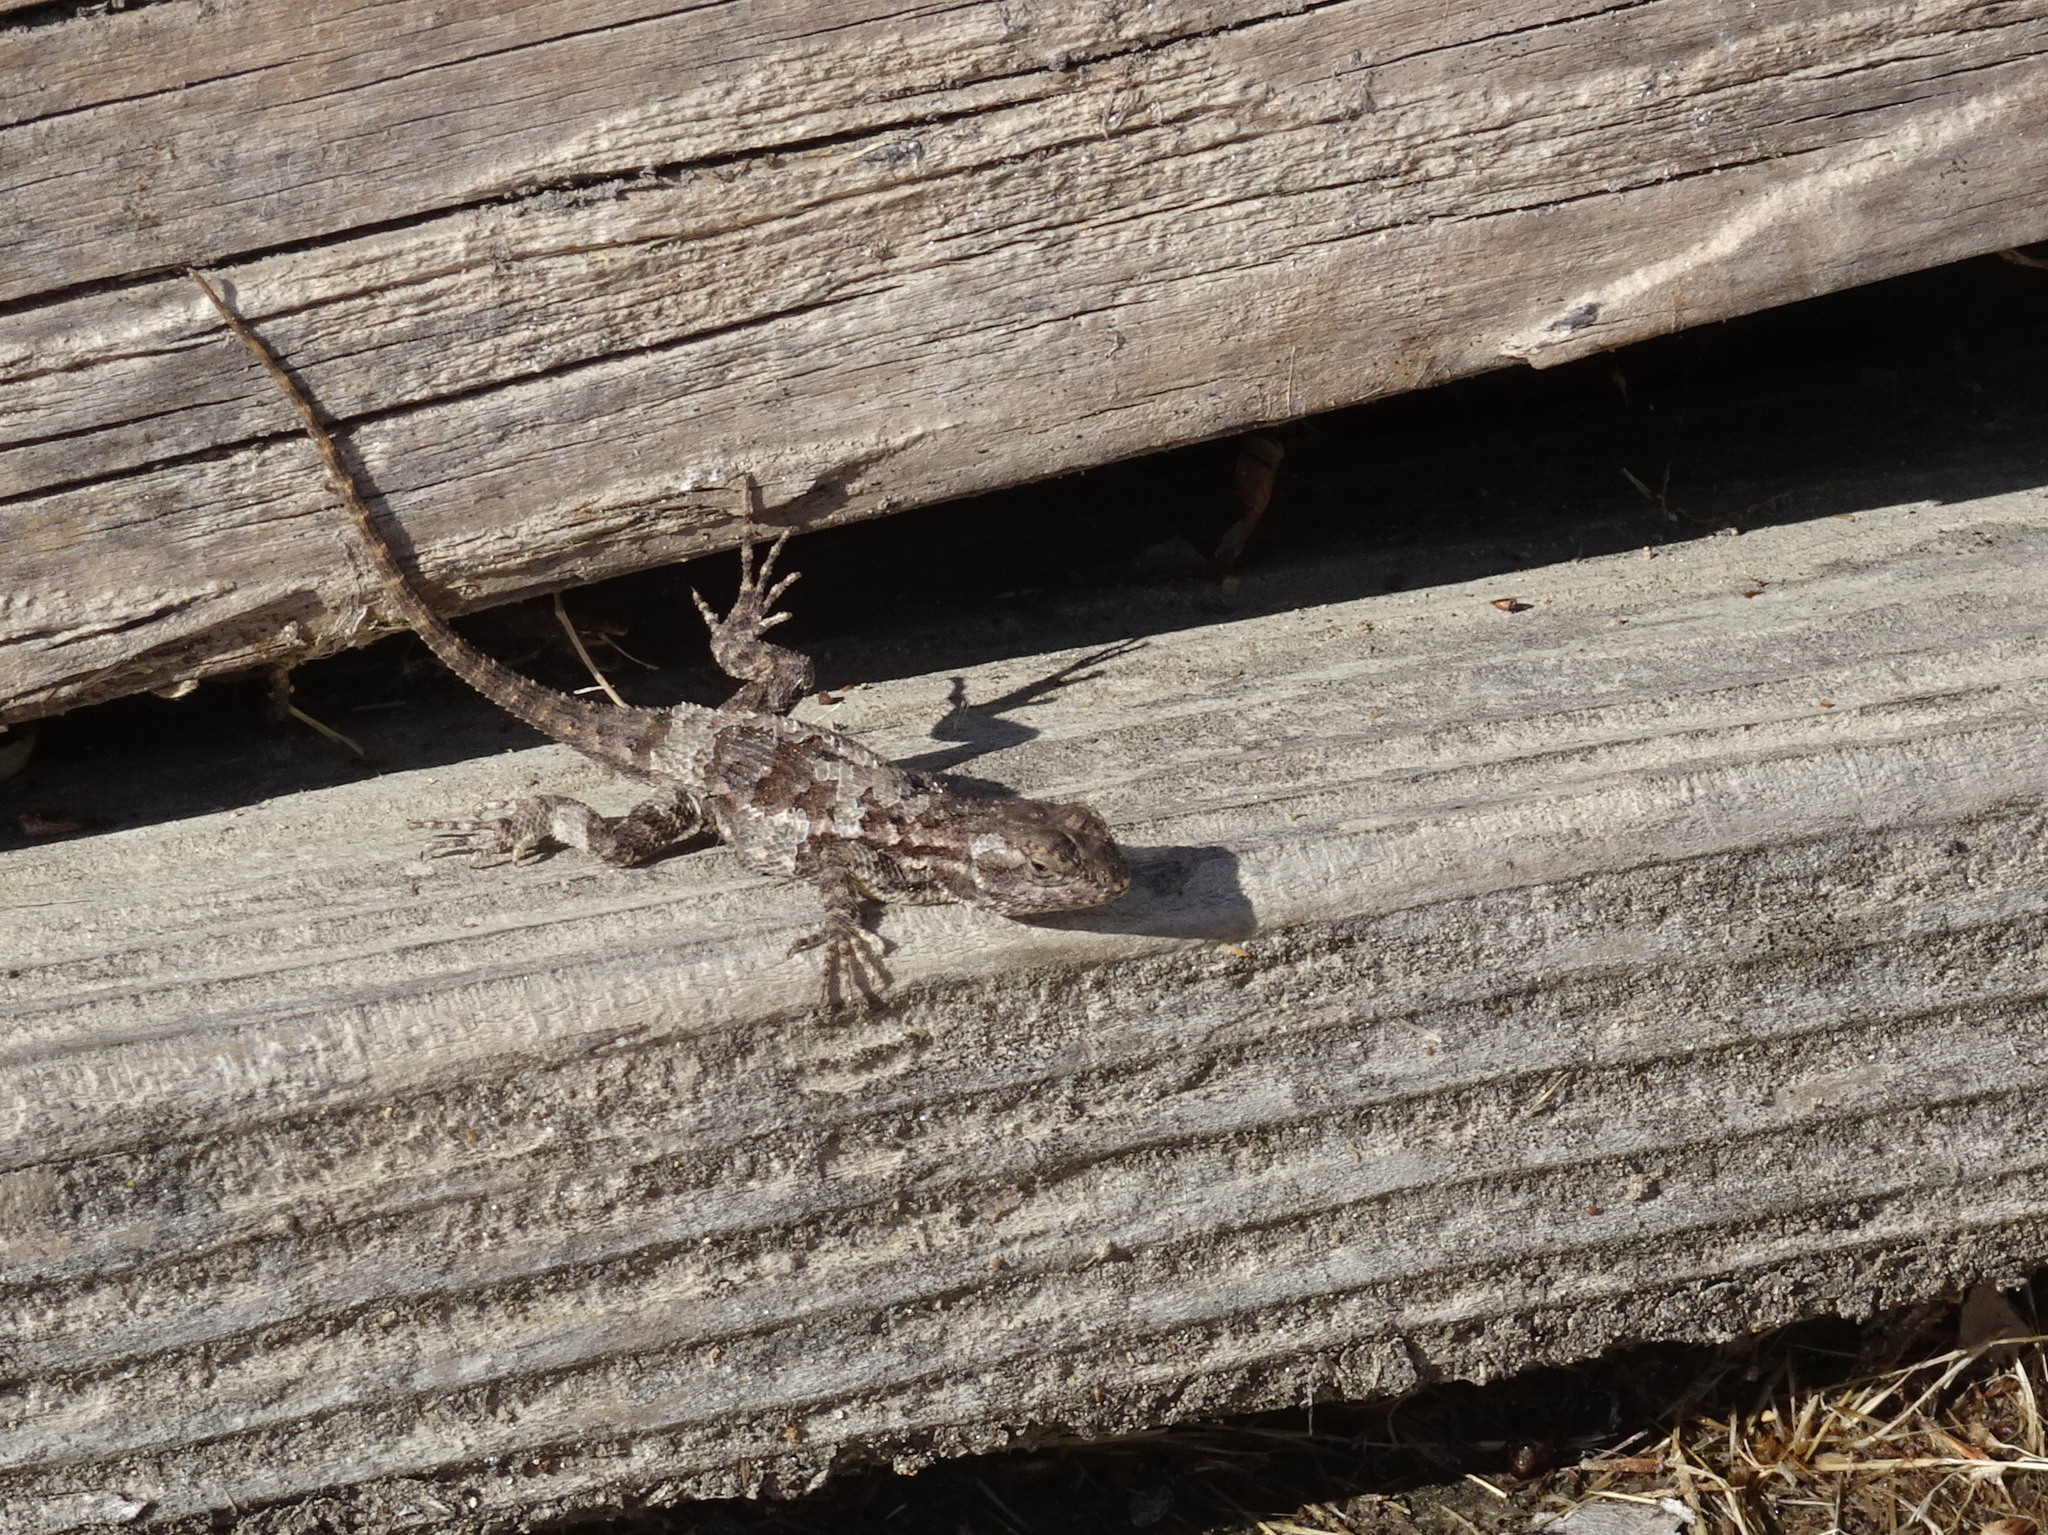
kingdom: Animalia
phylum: Chordata
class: Squamata
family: Phrynosomatidae
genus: Sceloporus
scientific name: Sceloporus occidentalis
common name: Western fence lizard
